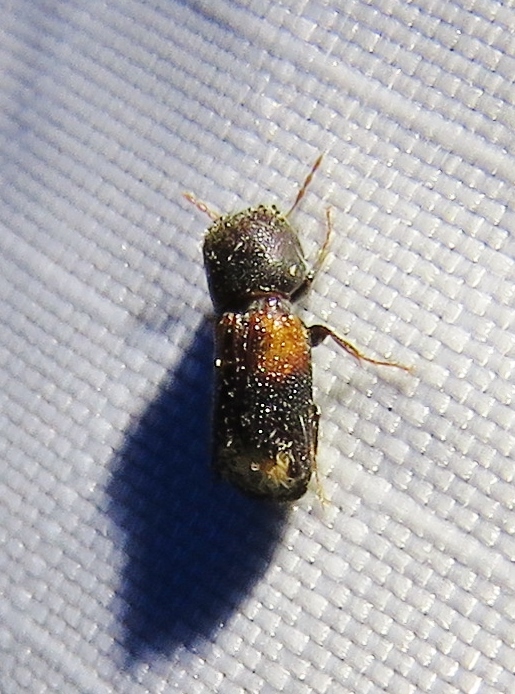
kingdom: Animalia
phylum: Arthropoda
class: Insecta
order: Coleoptera
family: Bostrichidae
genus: Xylobiops
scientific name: Xylobiops basilaris
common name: Red-shouldered bostrichid
